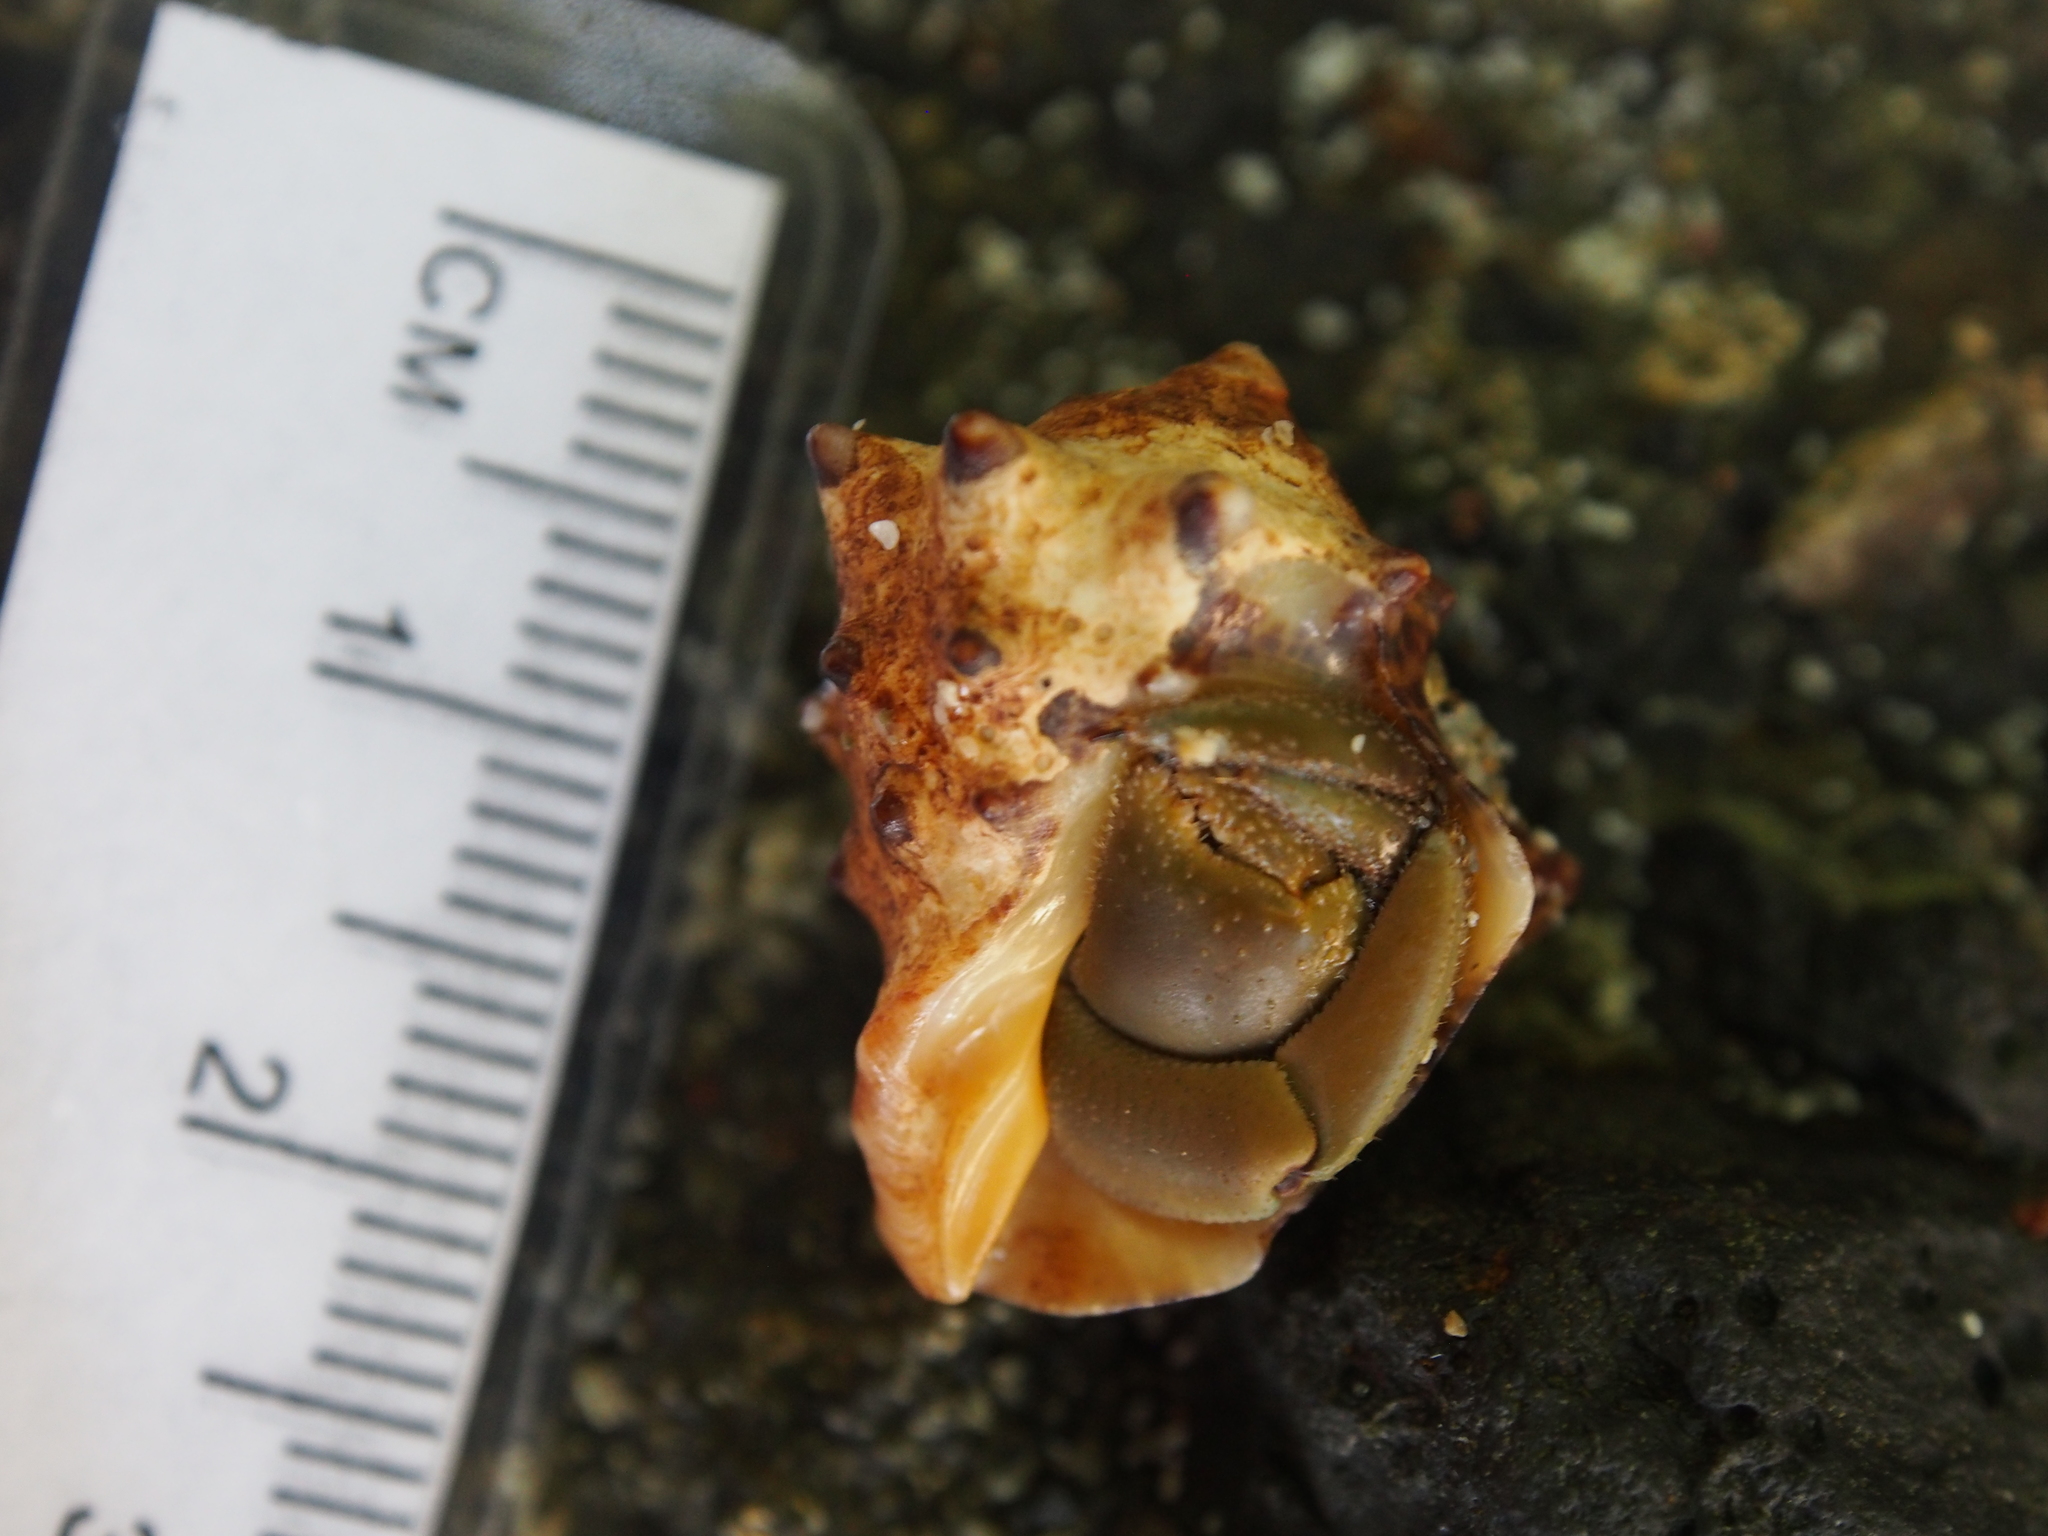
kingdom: Animalia
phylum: Mollusca
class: Gastropoda
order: Neogastropoda
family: Muricidae
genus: Vasula
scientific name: Vasula speciosa
